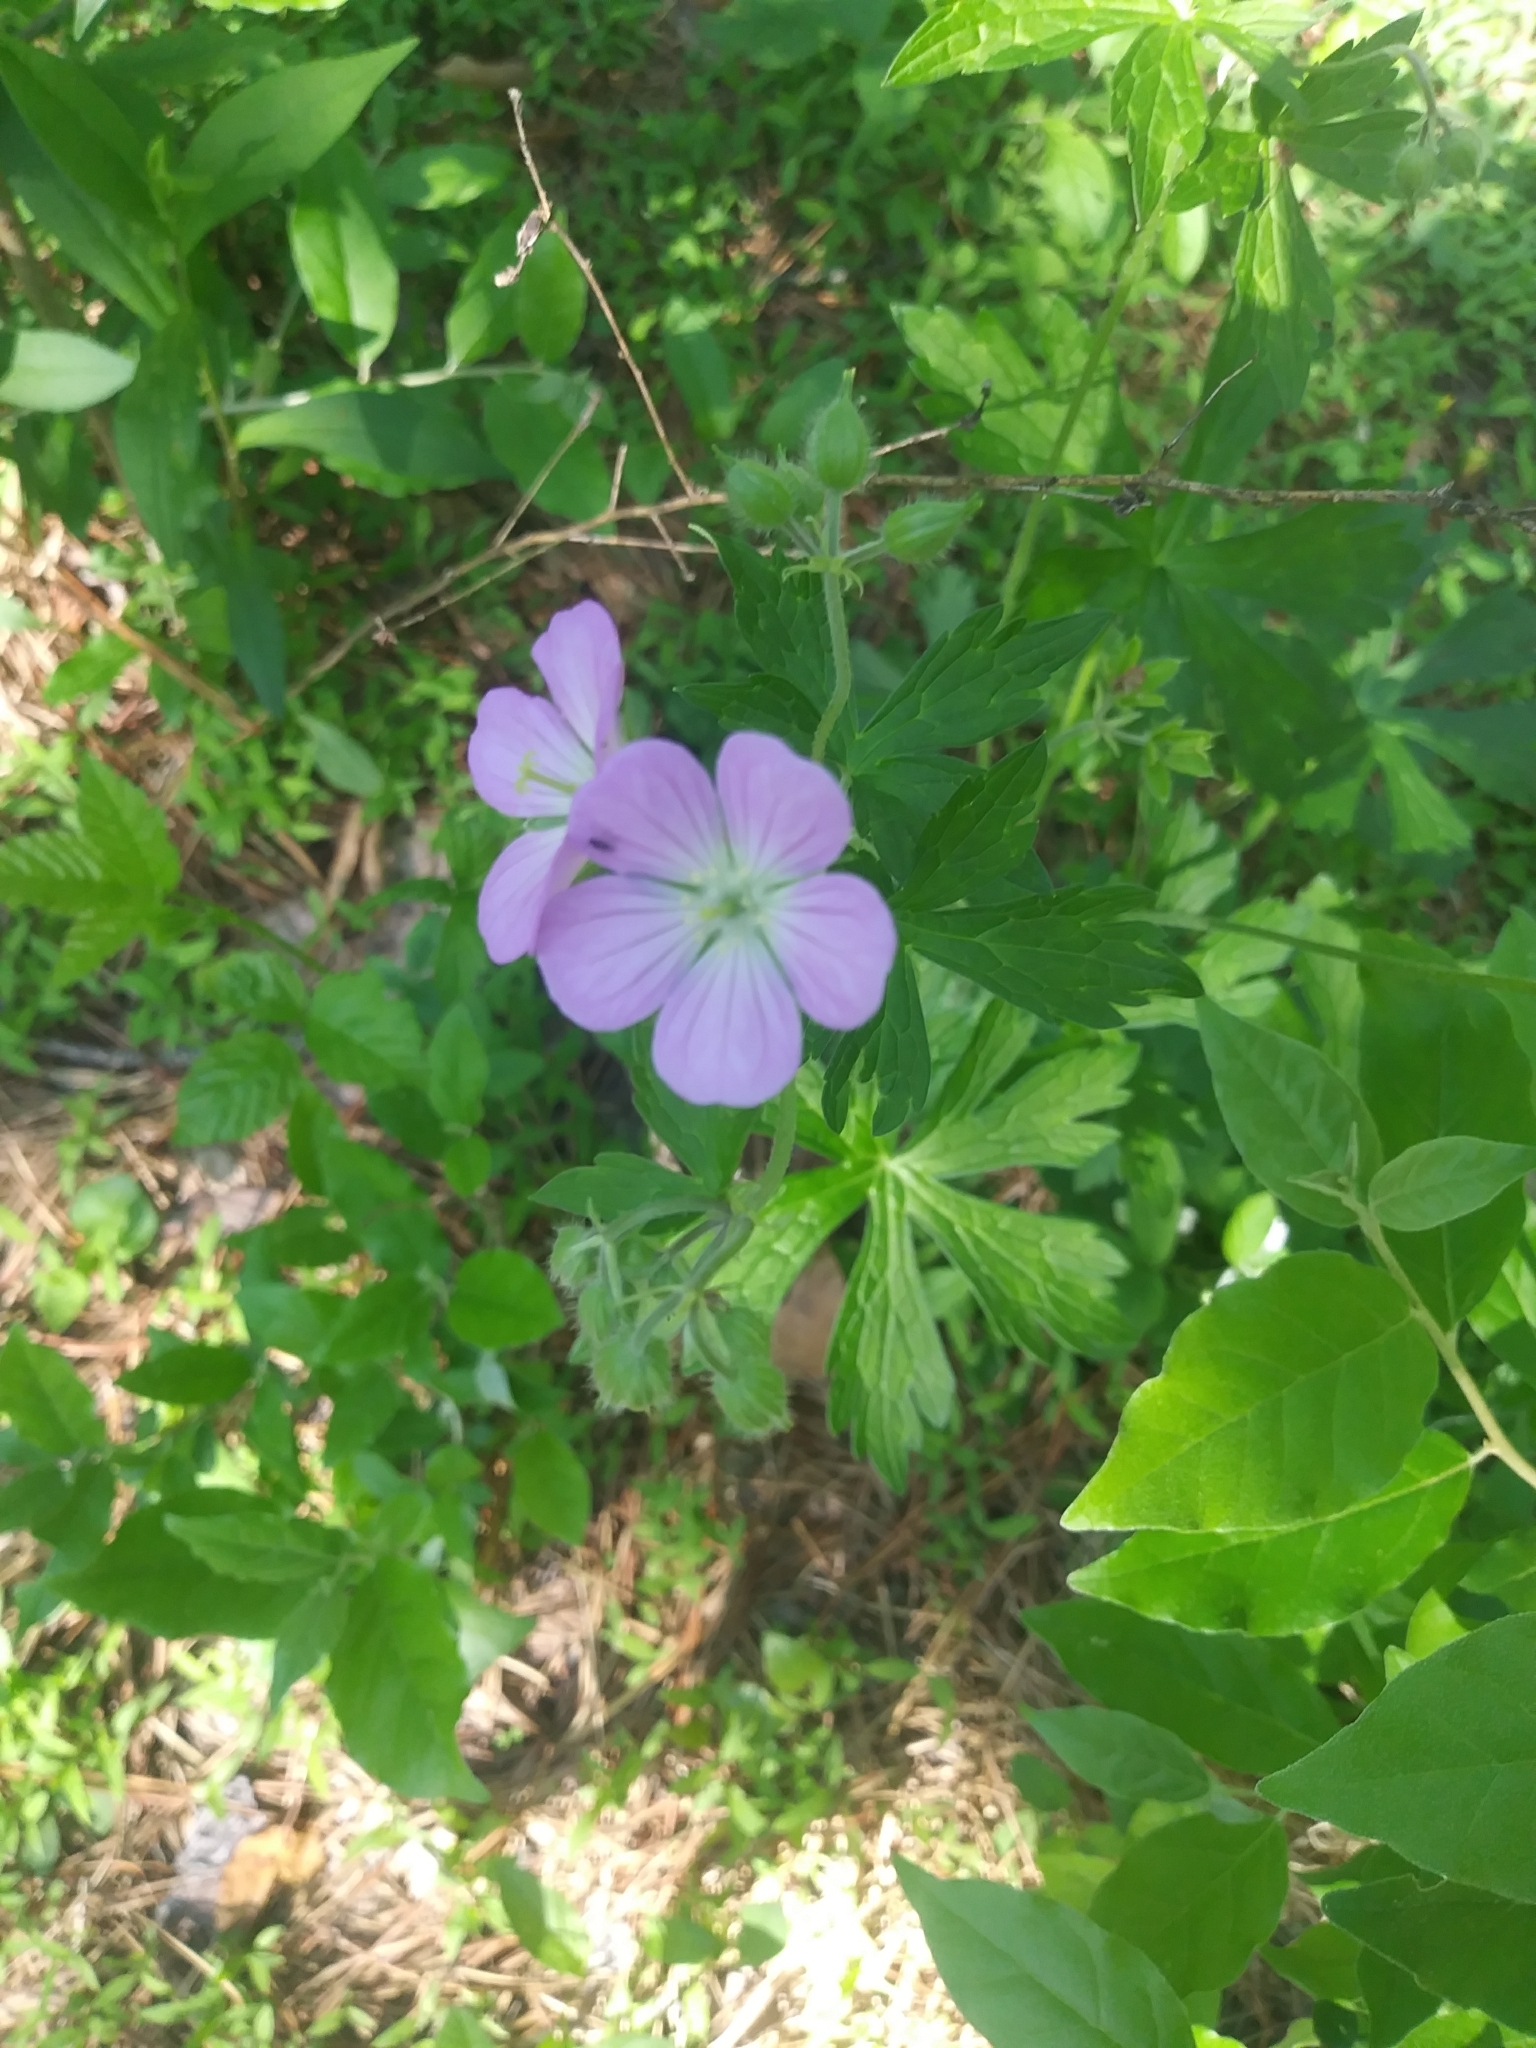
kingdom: Plantae
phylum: Tracheophyta
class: Magnoliopsida
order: Geraniales
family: Geraniaceae
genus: Geranium
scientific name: Geranium maculatum
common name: Spotted geranium
